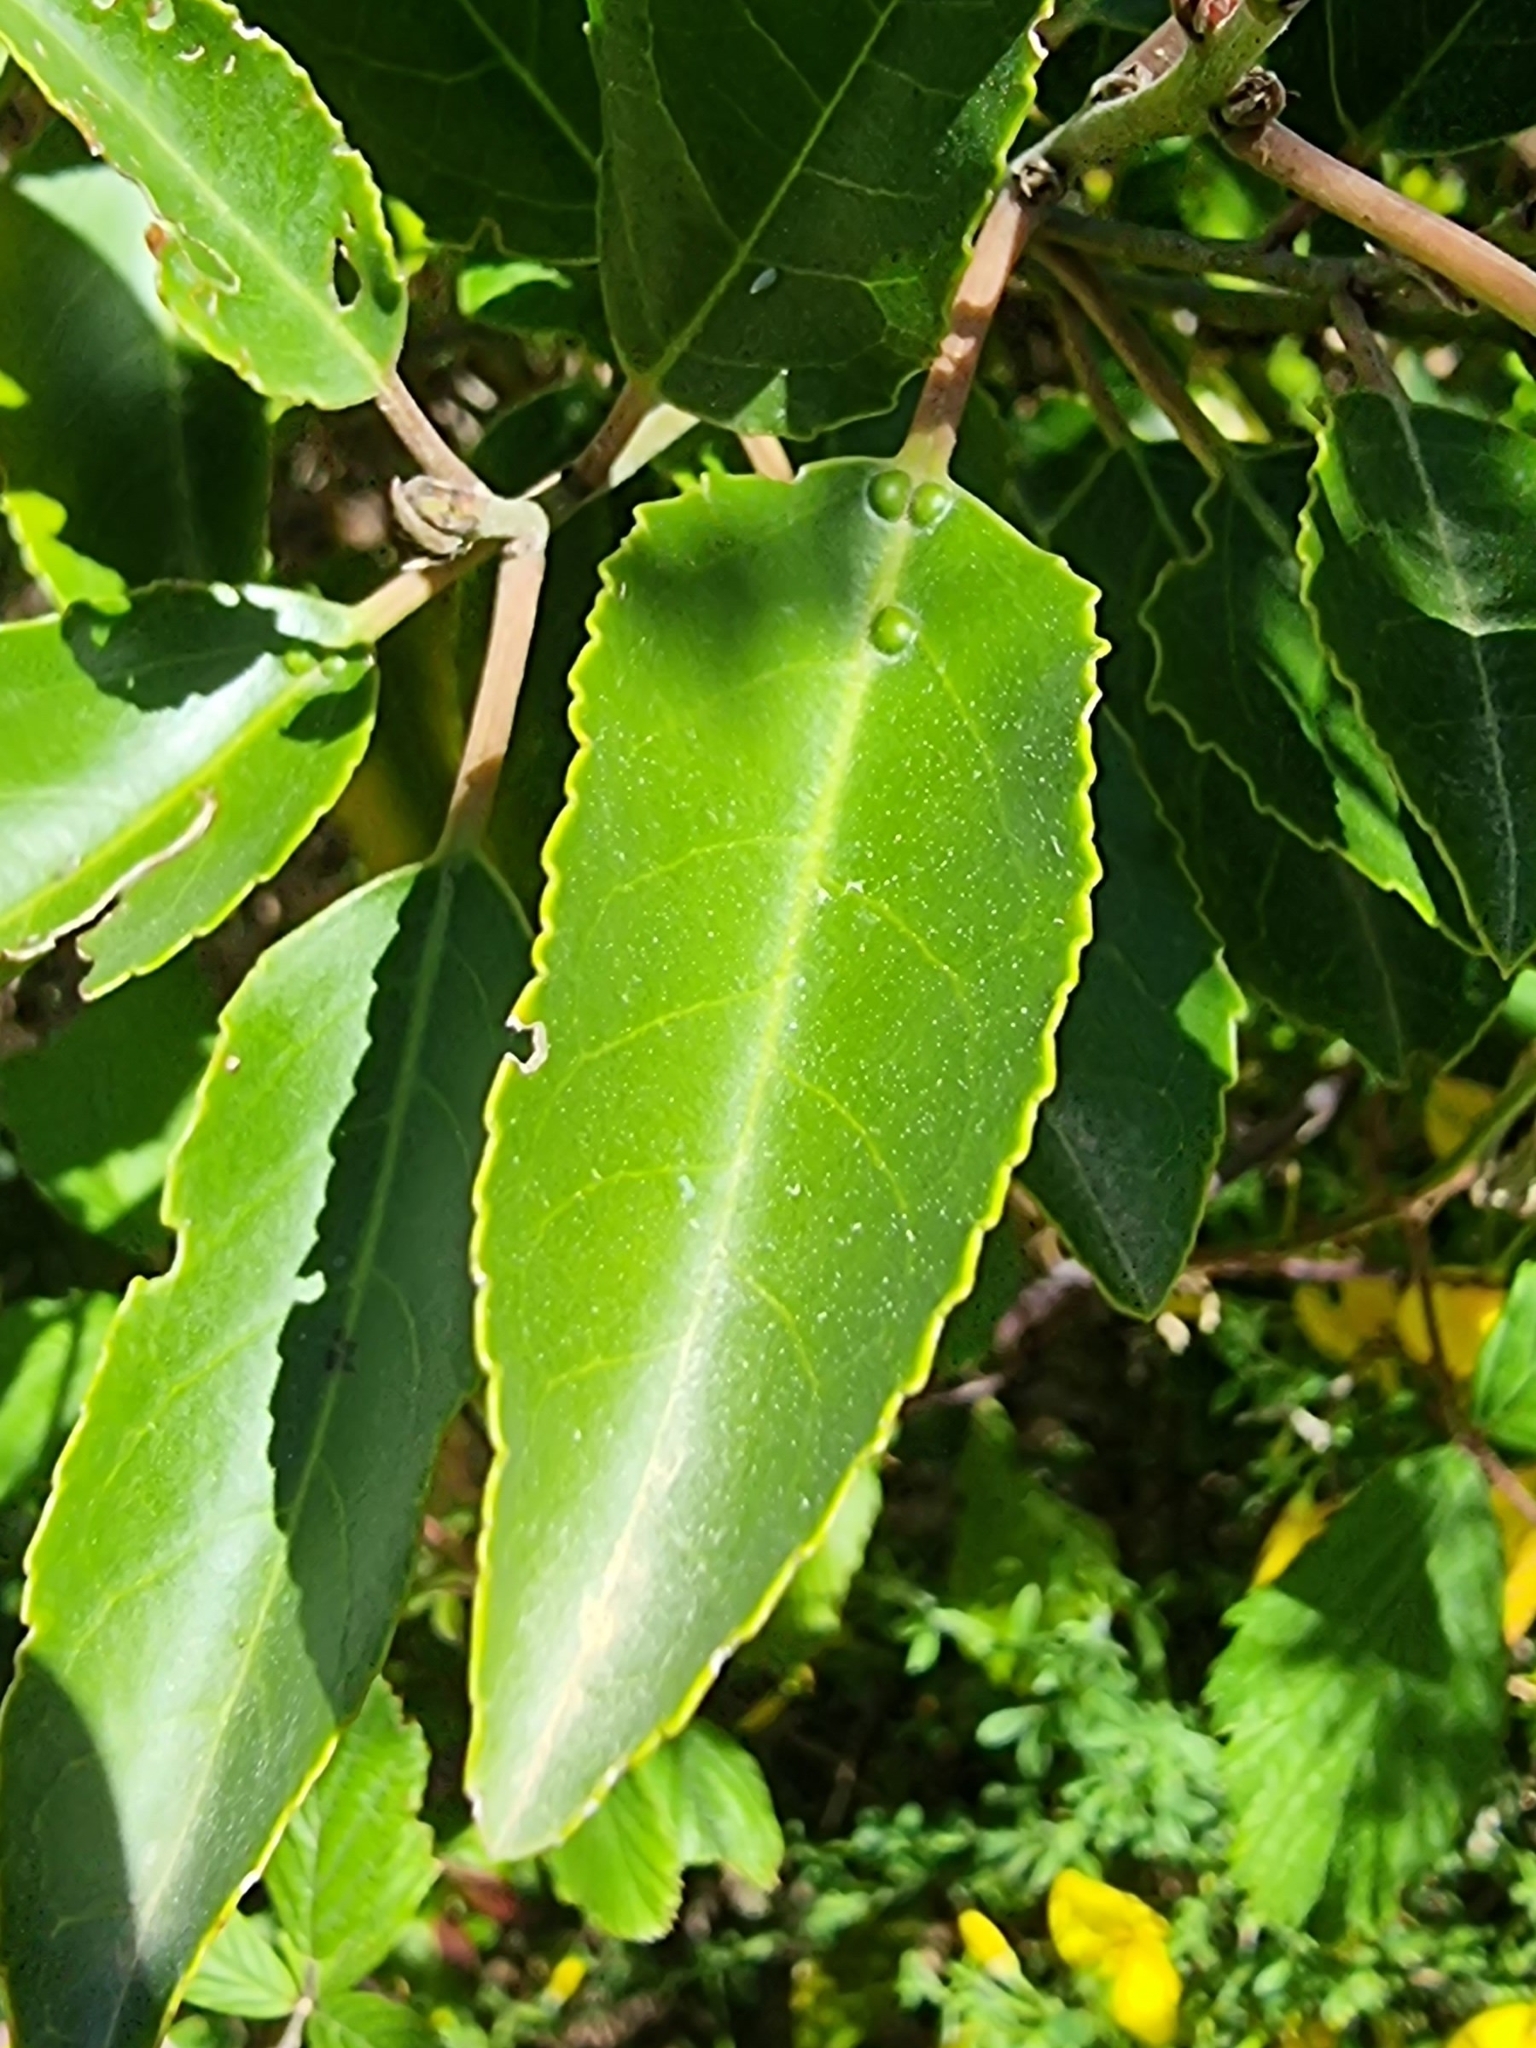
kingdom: Plantae
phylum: Tracheophyta
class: Magnoliopsida
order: Rosales
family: Rhamnaceae
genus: Rhamnus
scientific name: Rhamnus glandulosa
